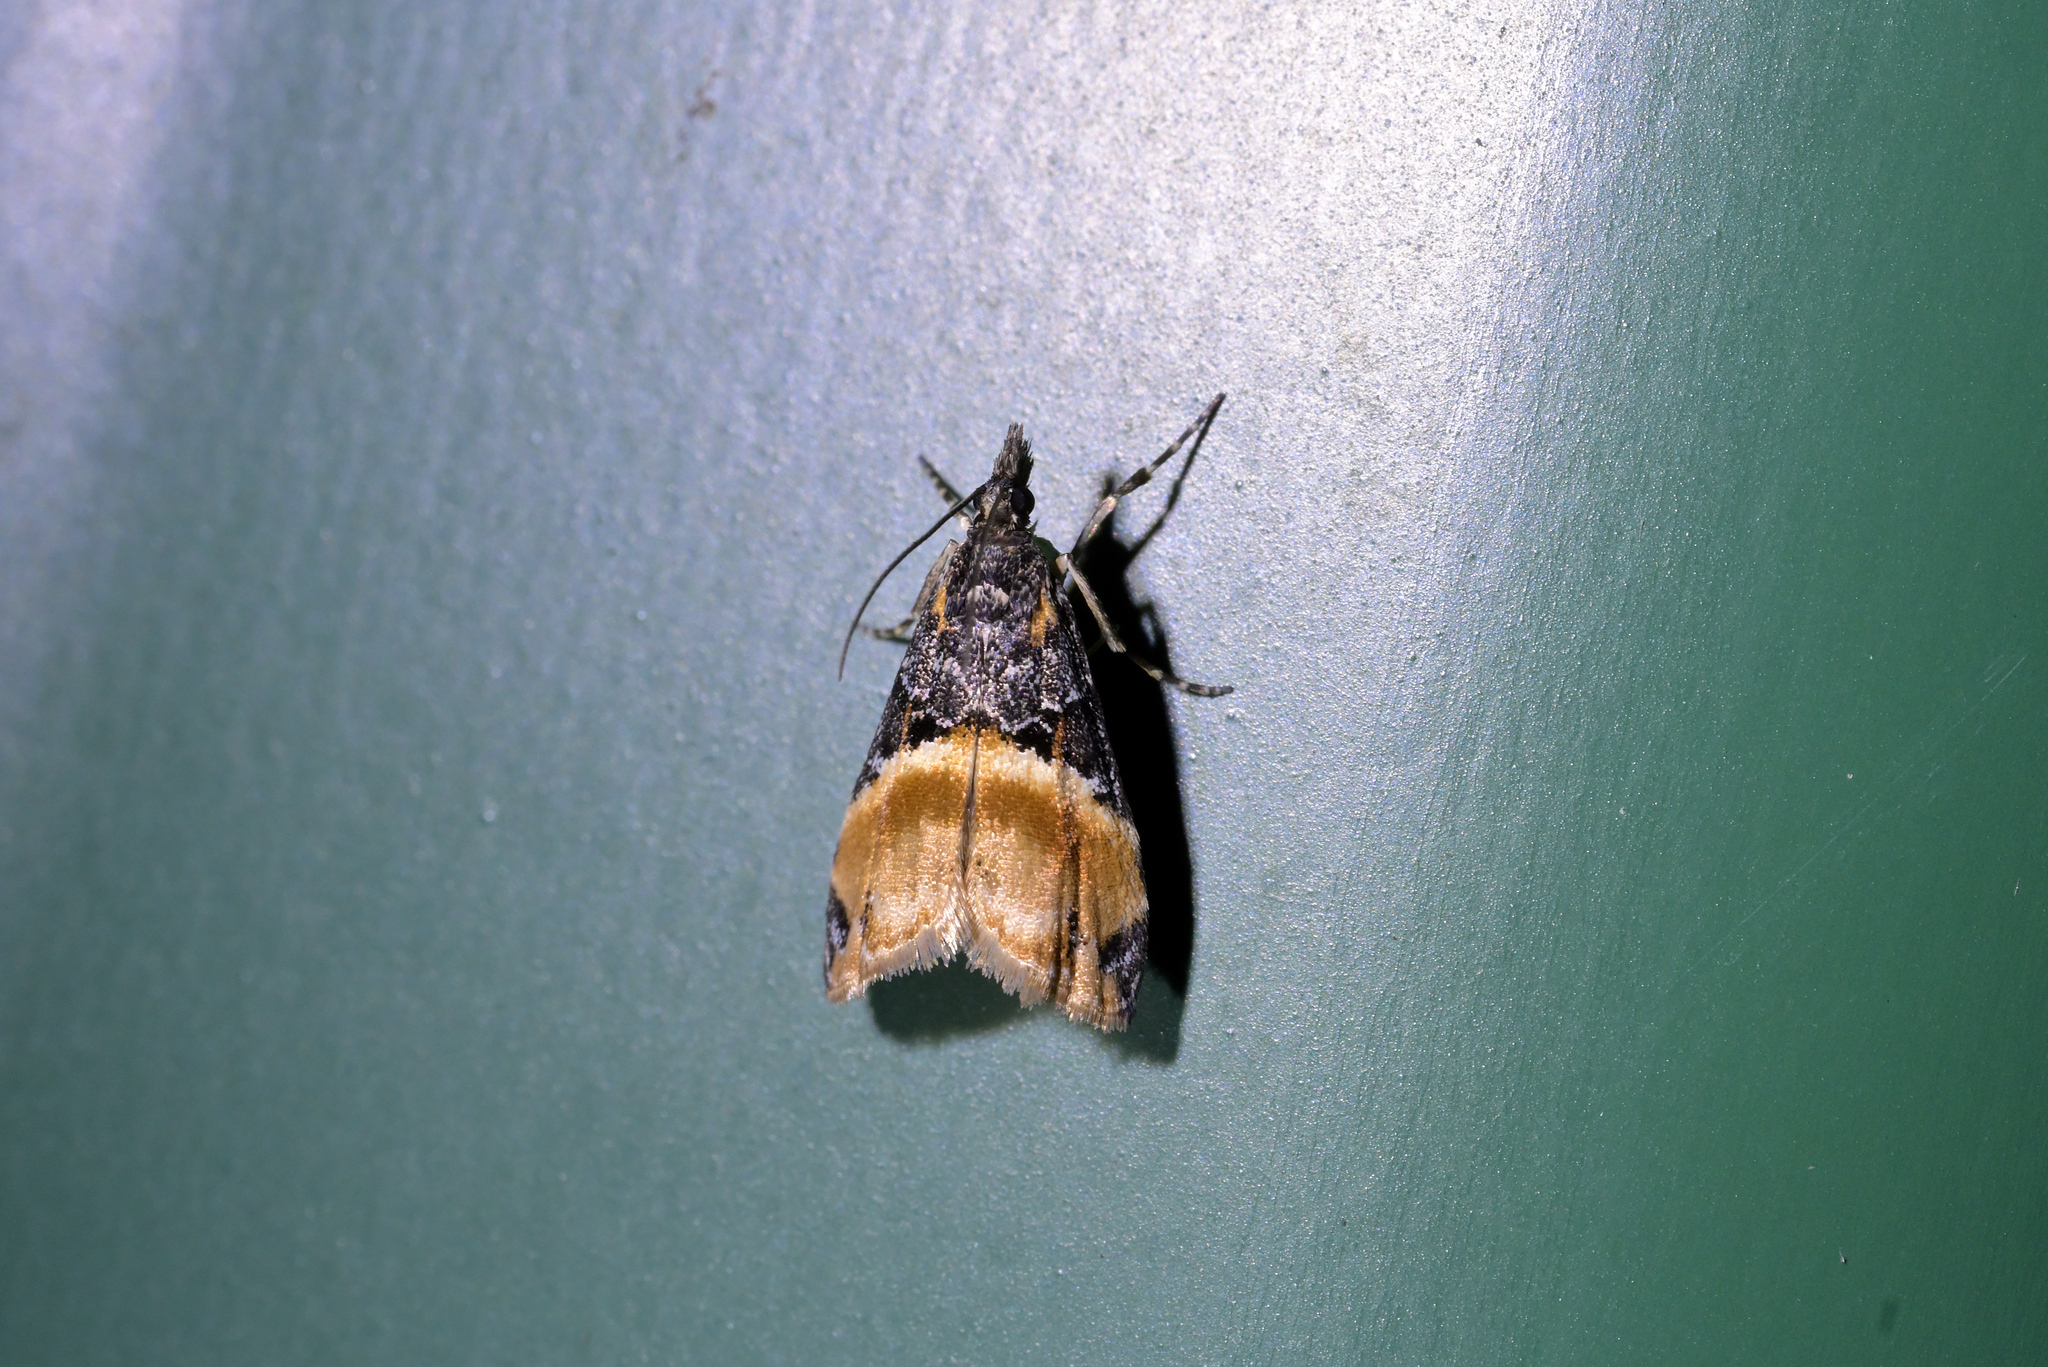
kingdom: Animalia
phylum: Arthropoda
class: Insecta
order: Lepidoptera
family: Crambidae
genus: Eudonia
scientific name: Eudonia chlamydota
